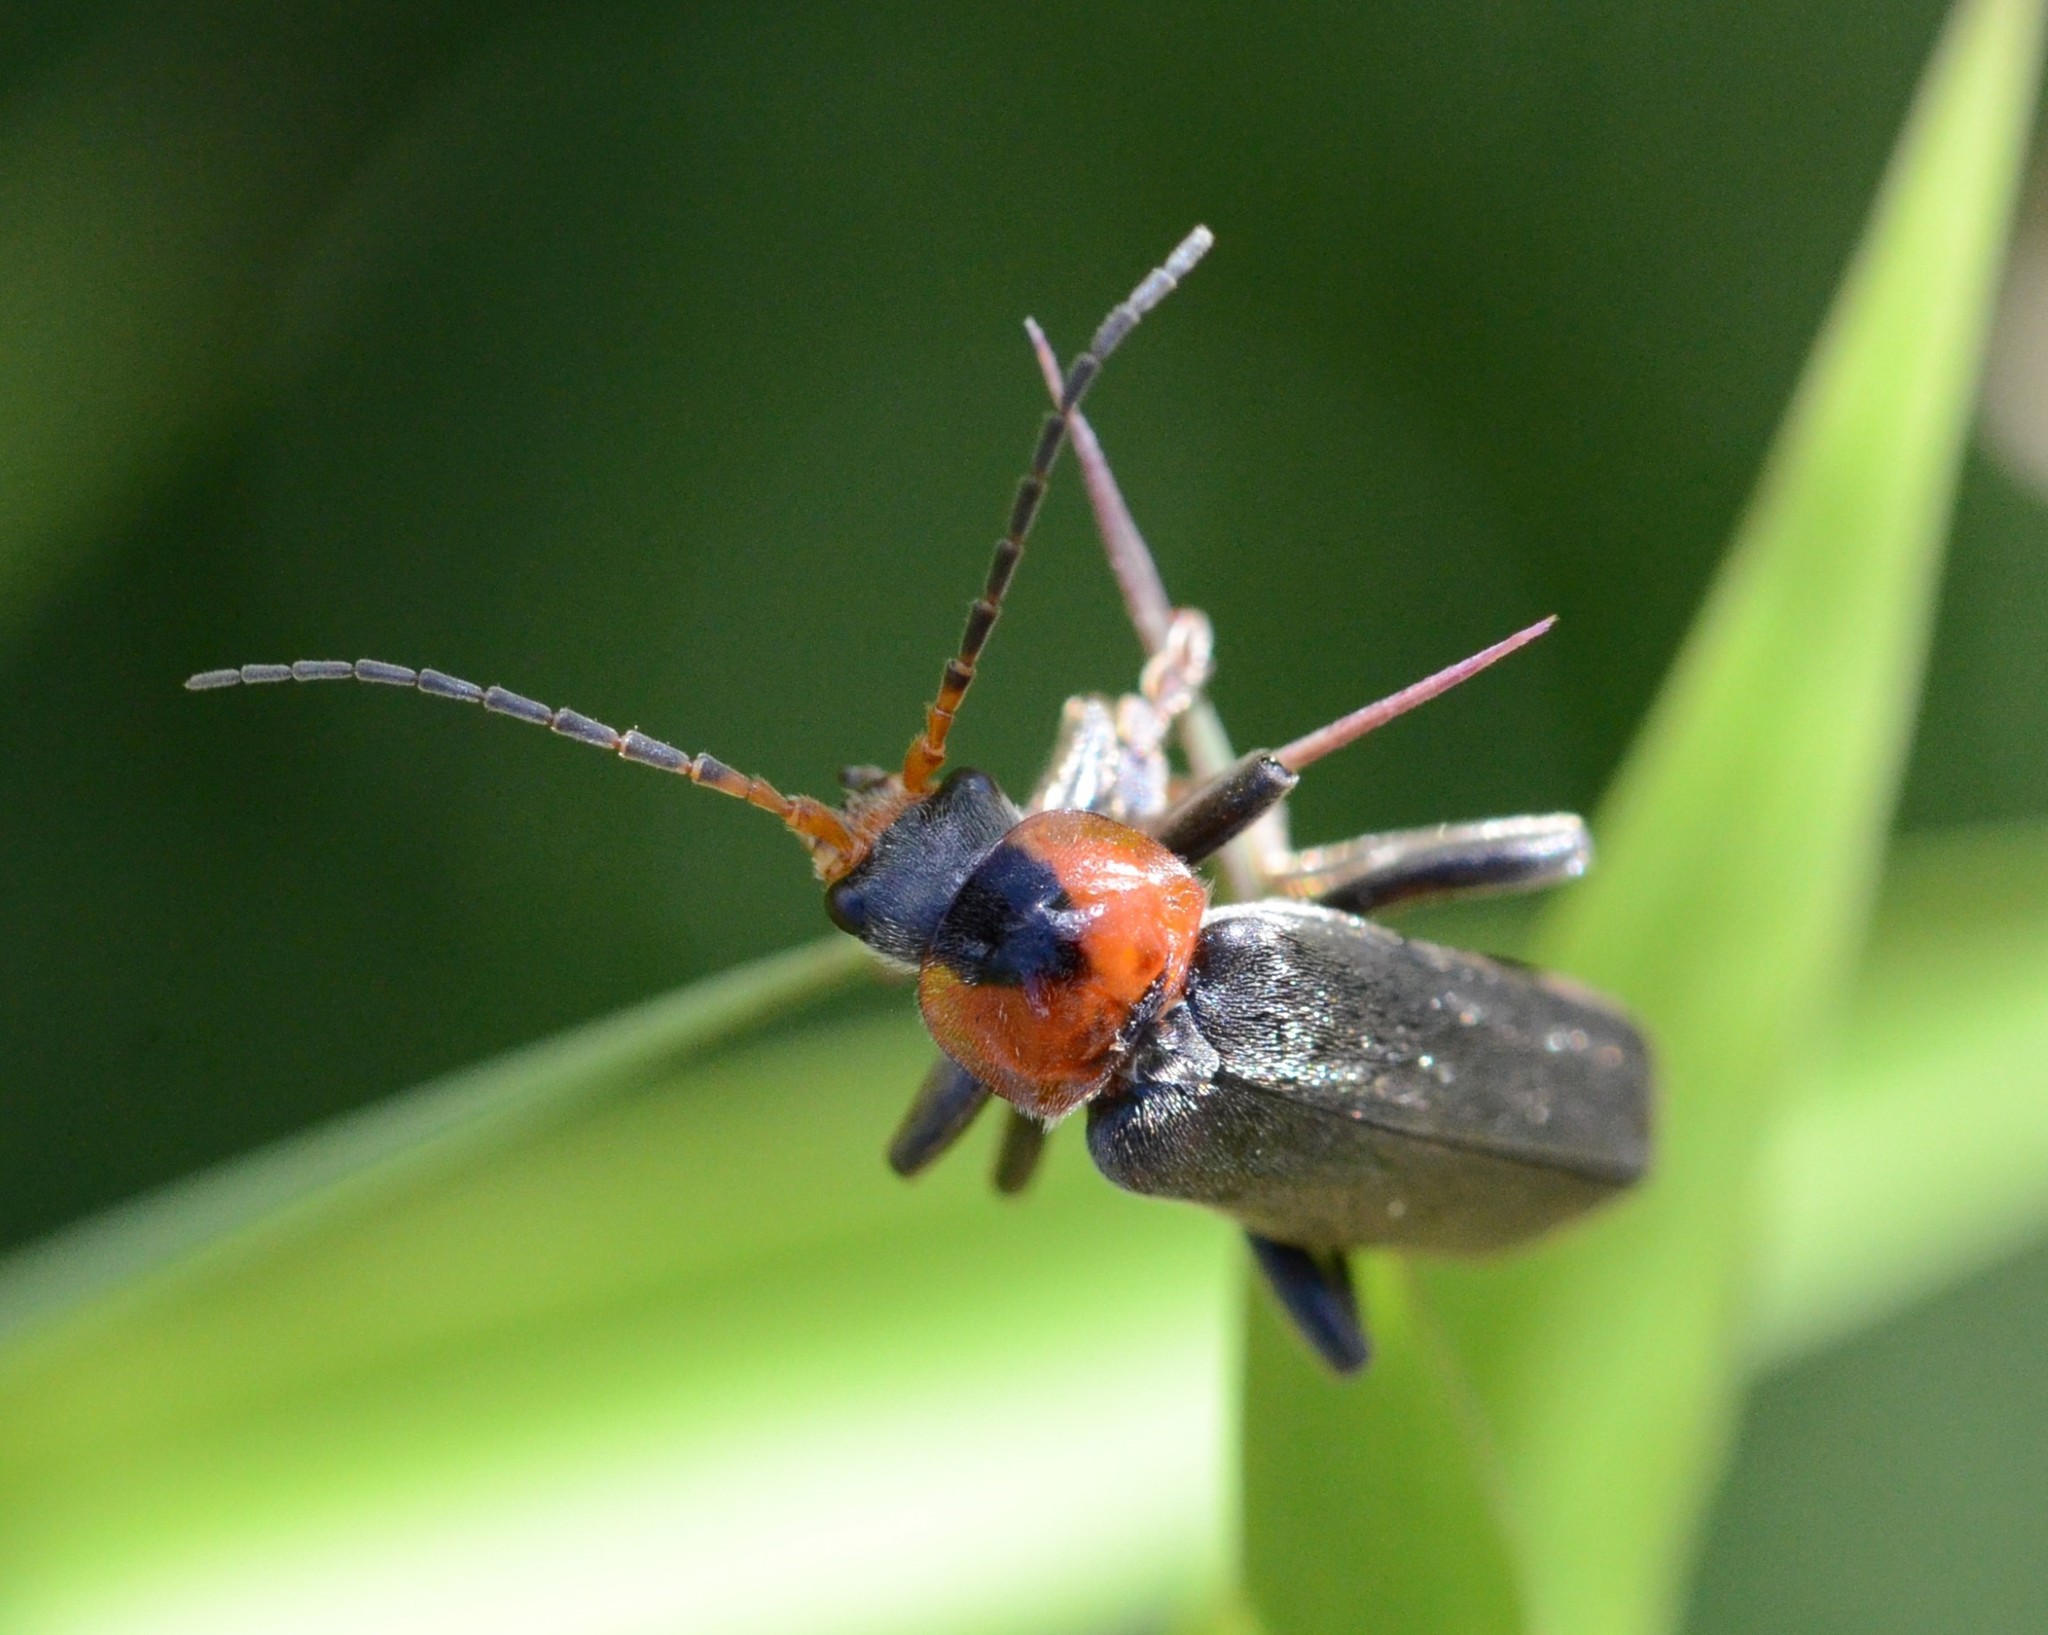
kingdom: Animalia
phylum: Arthropoda
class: Insecta
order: Coleoptera
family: Cantharidae
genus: Cantharis
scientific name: Cantharis fusca
